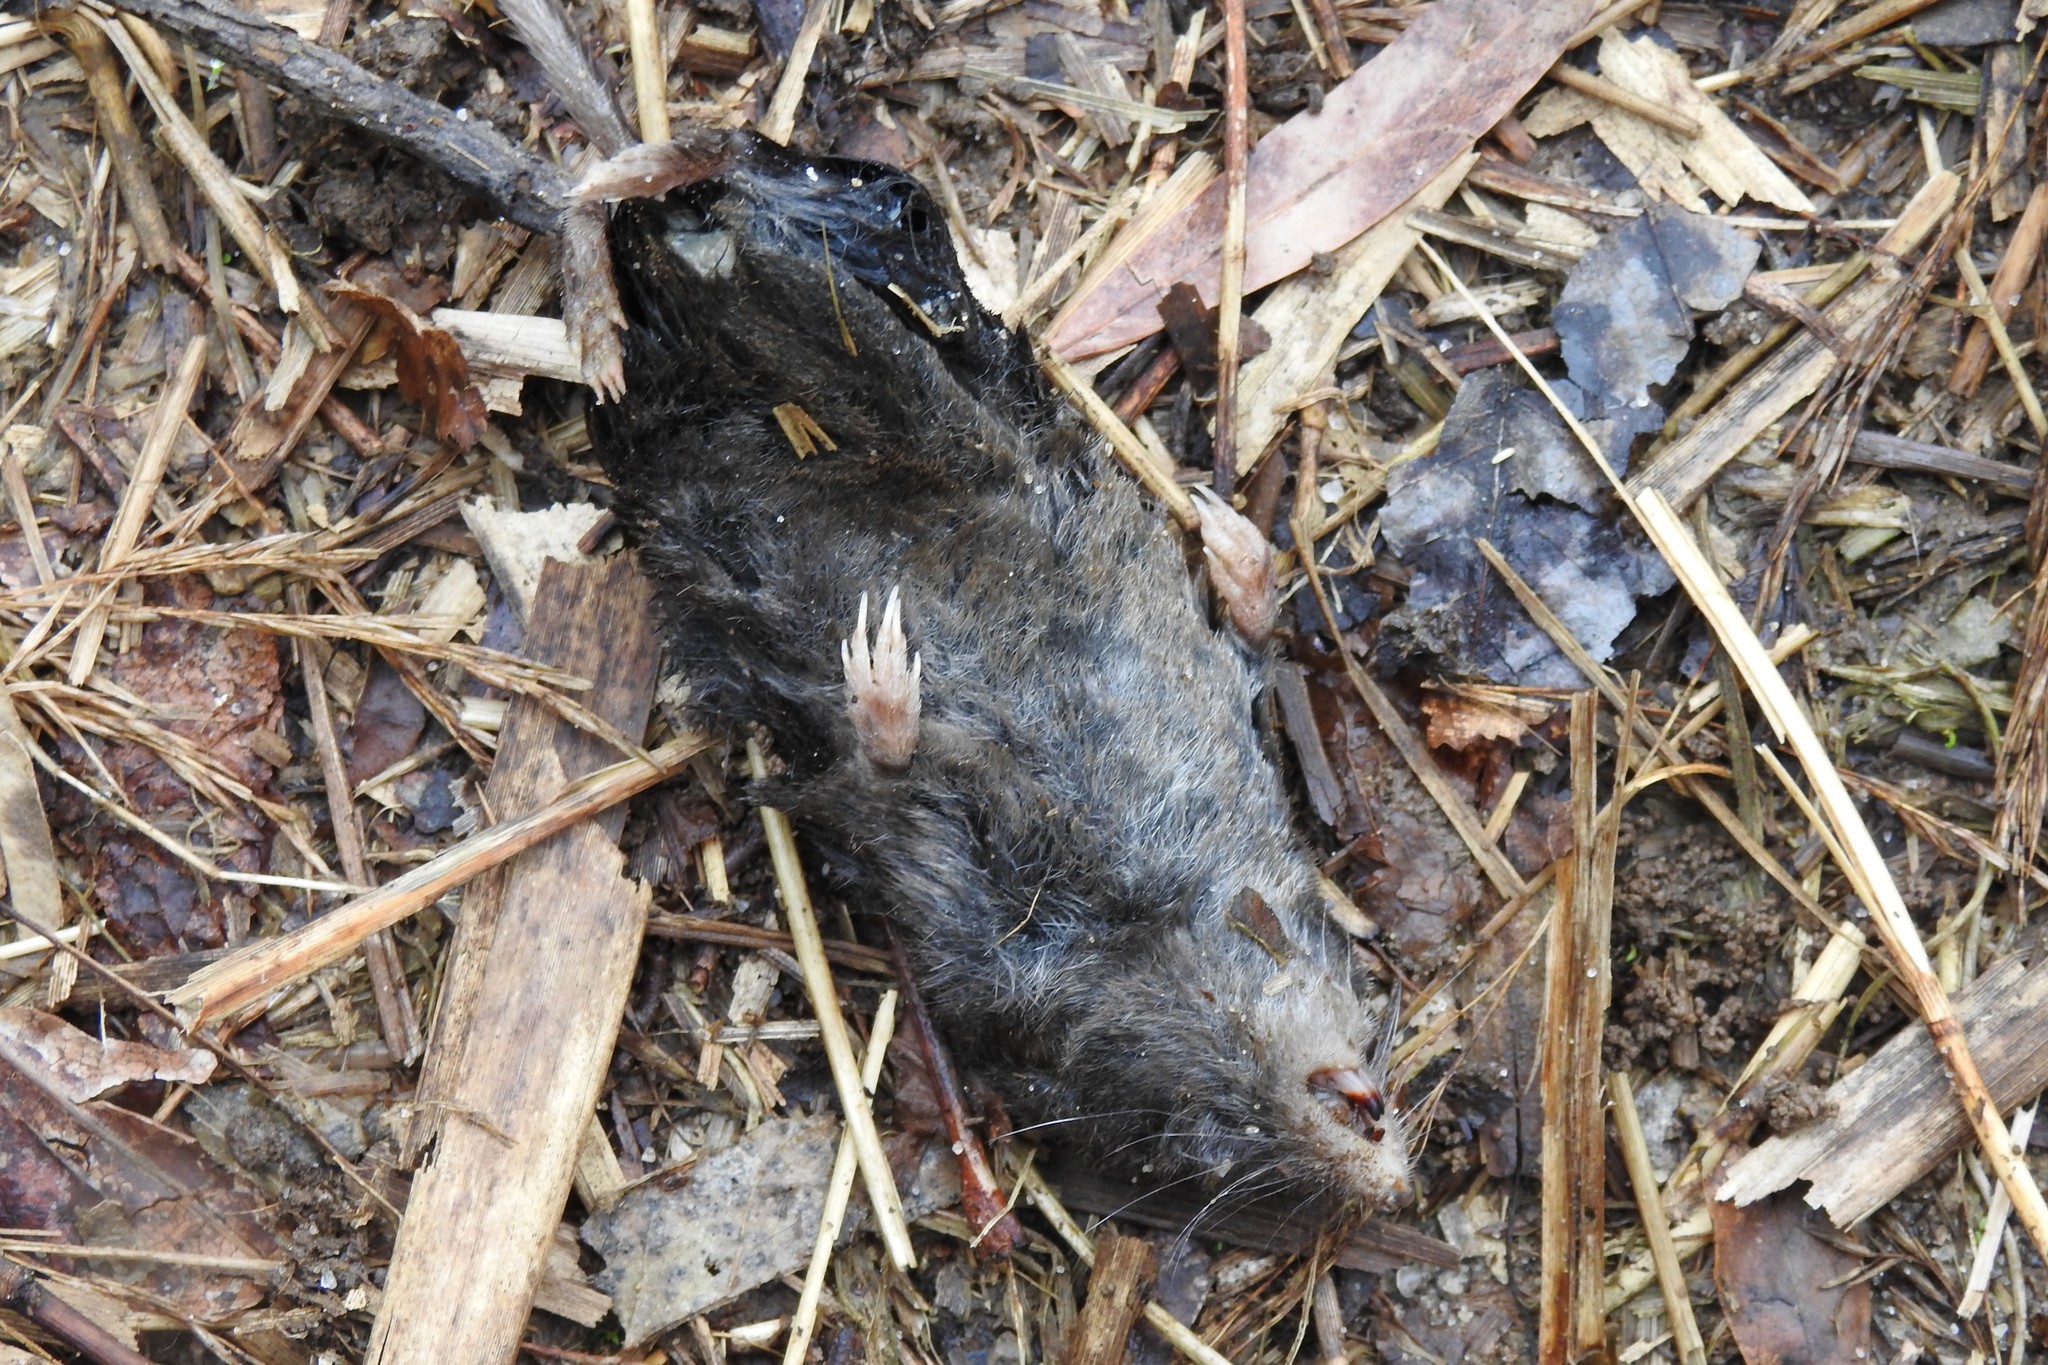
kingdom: Animalia
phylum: Chordata
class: Mammalia
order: Soricomorpha
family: Soricidae
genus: Blarina
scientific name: Blarina brevicauda
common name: Northern short-tailed shrew
